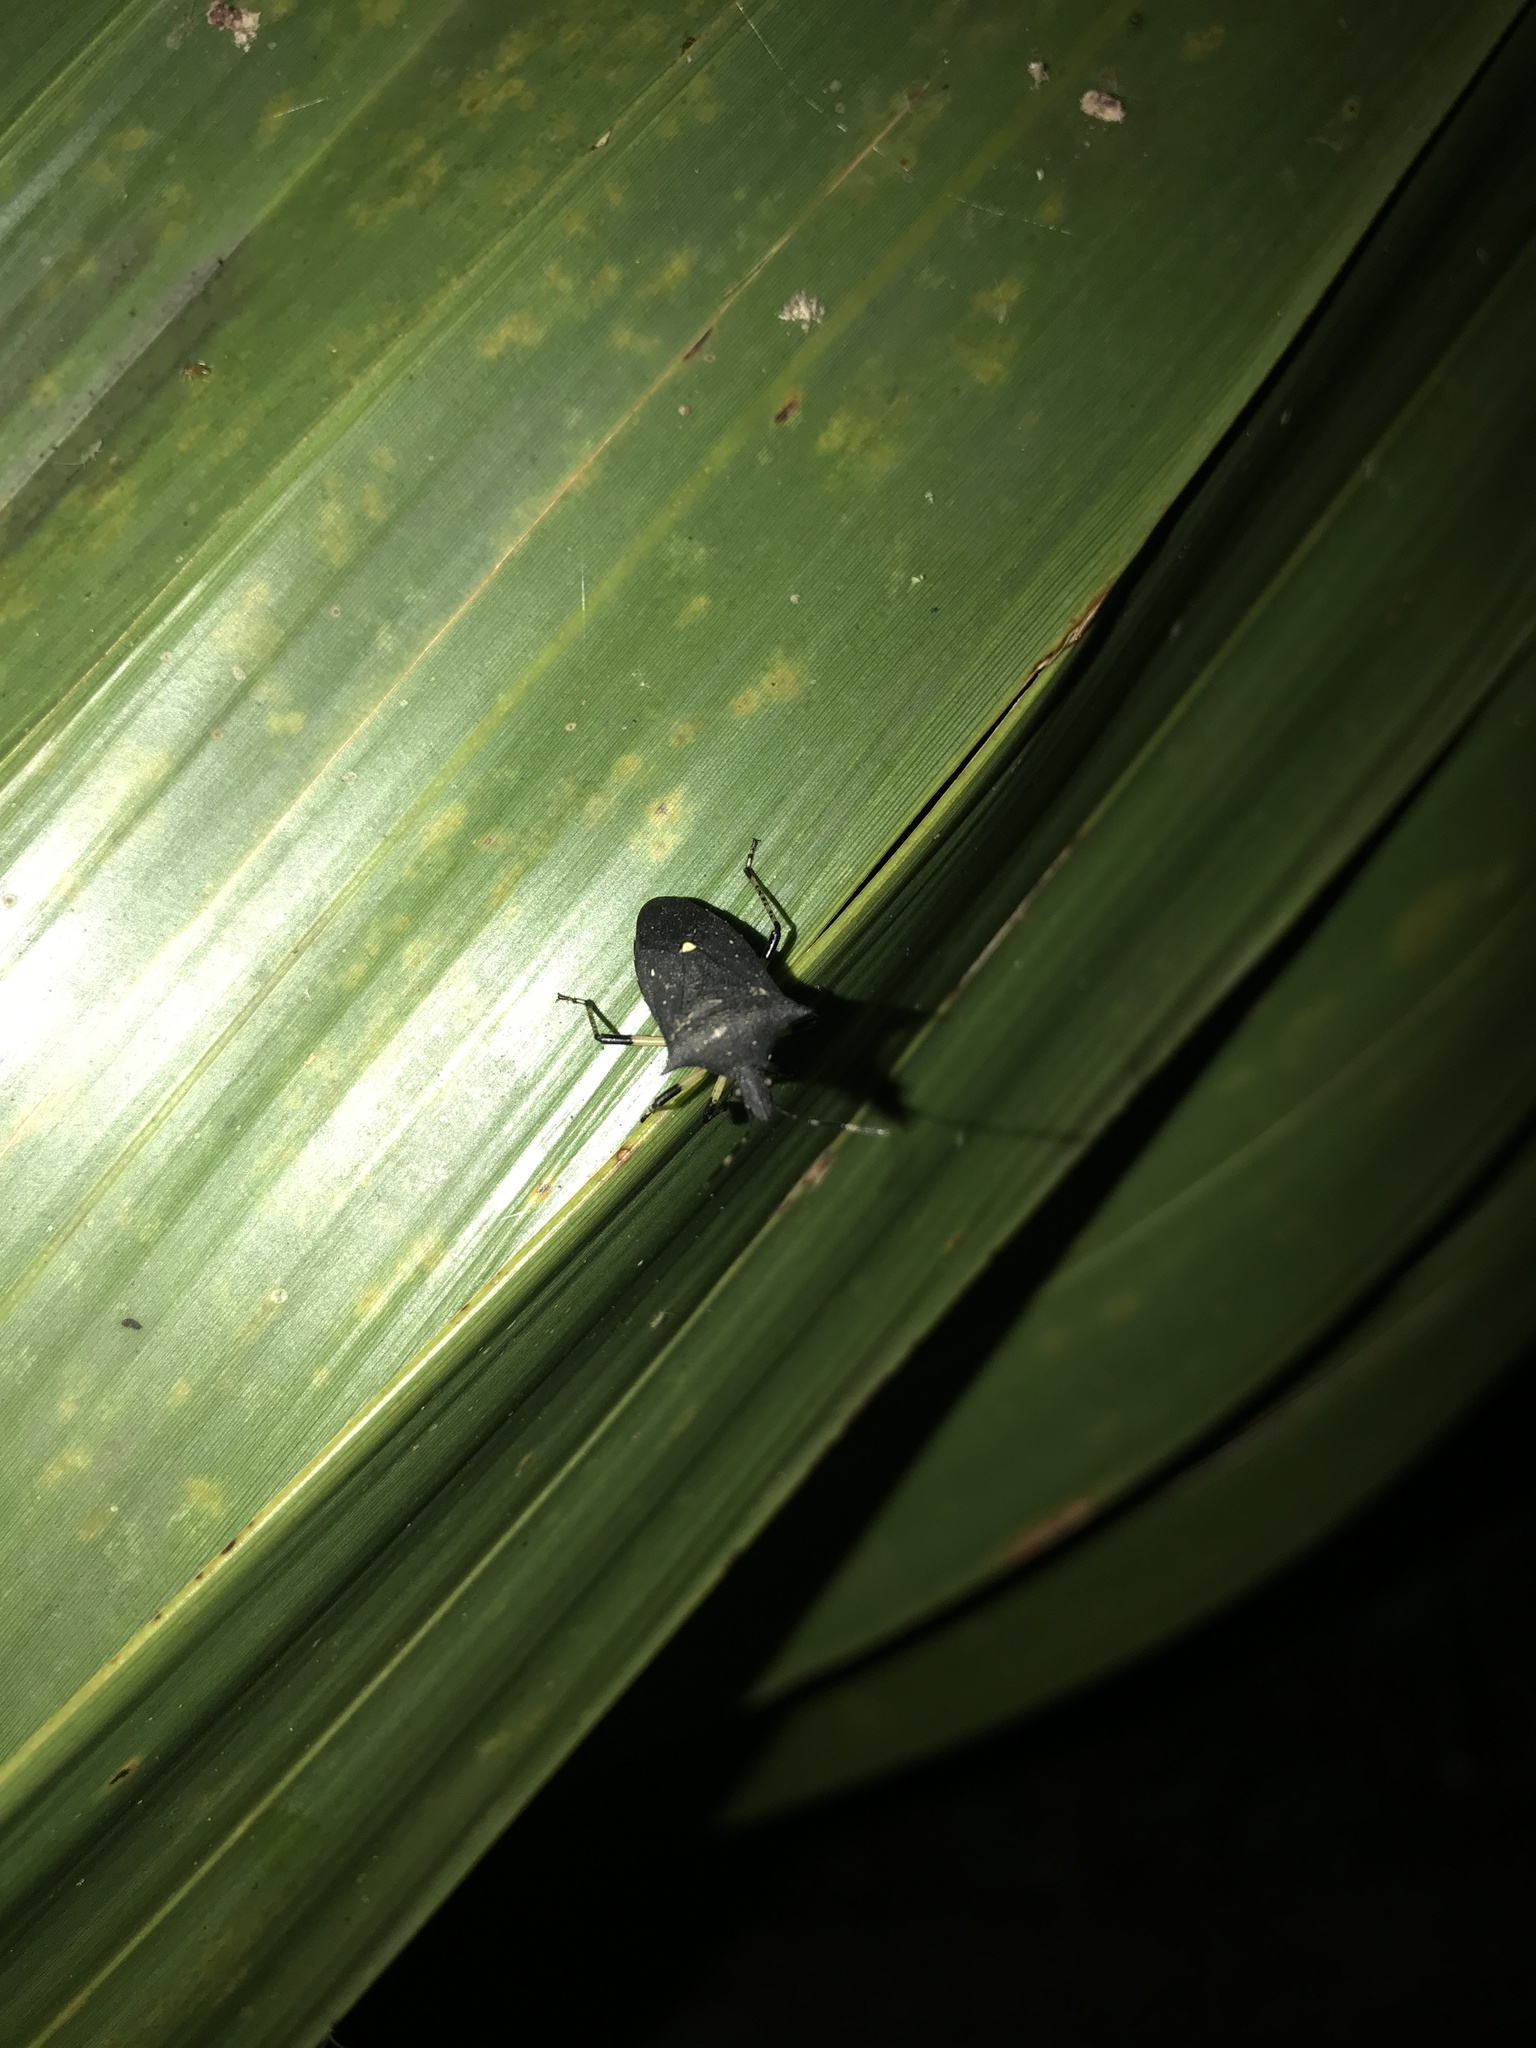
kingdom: Animalia
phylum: Arthropoda
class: Insecta
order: Hemiptera
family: Pentatomidae
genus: Proxys
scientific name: Proxys punctulatus
